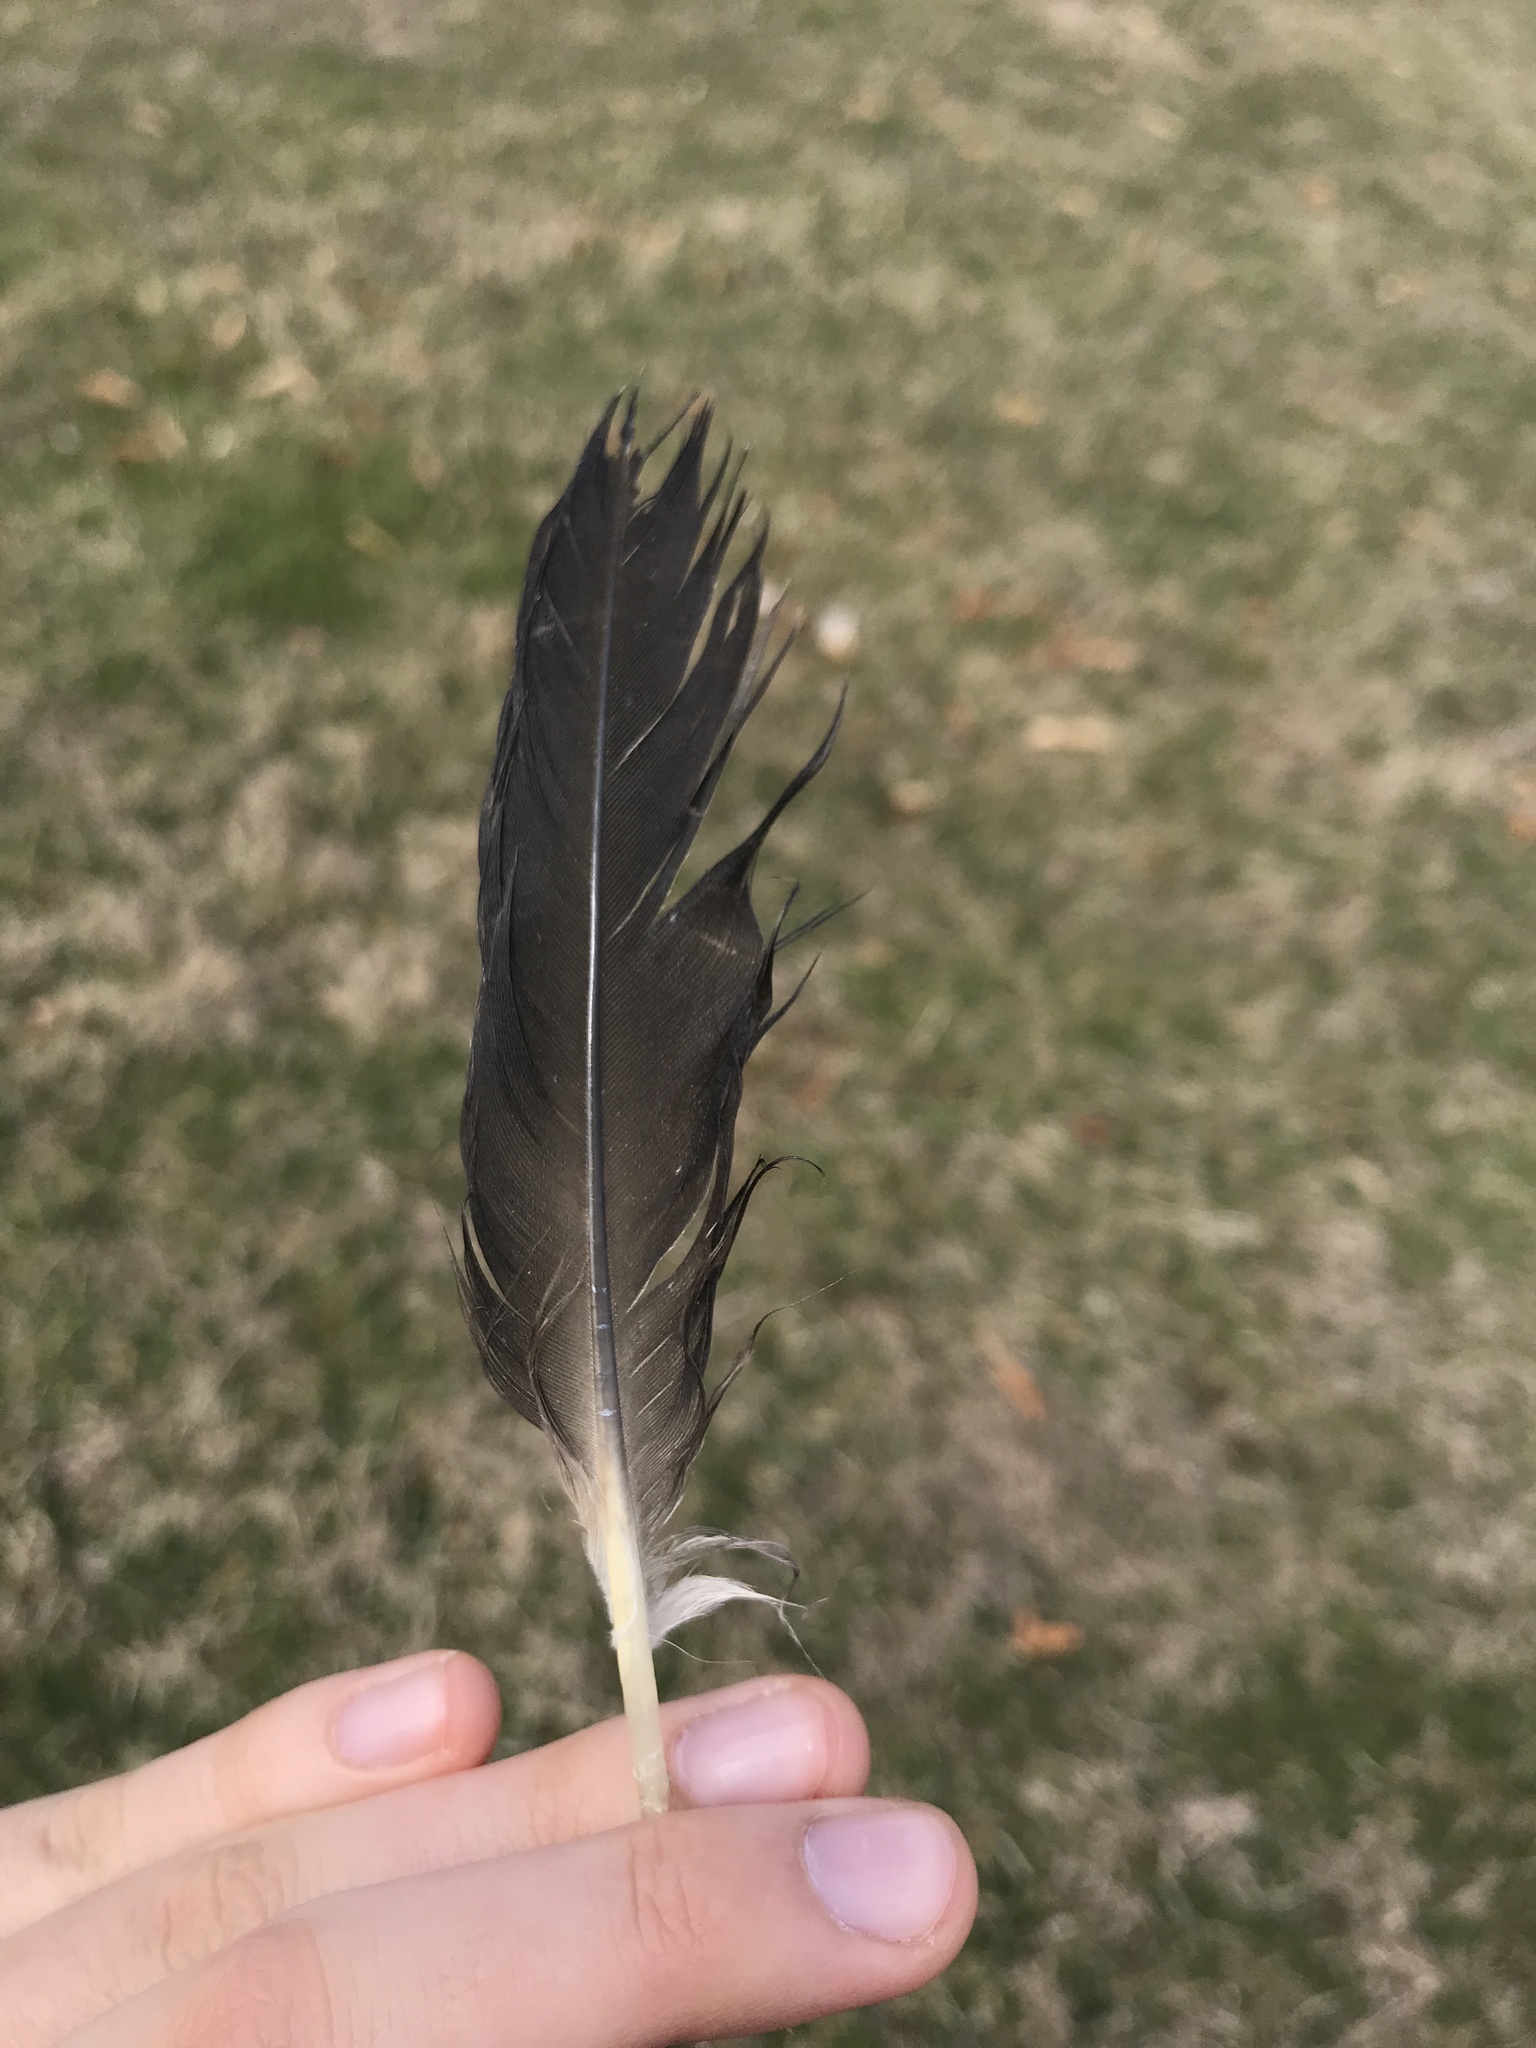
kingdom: Animalia
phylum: Chordata
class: Aves
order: Anseriformes
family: Anatidae
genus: Branta
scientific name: Branta canadensis
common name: Canada goose
